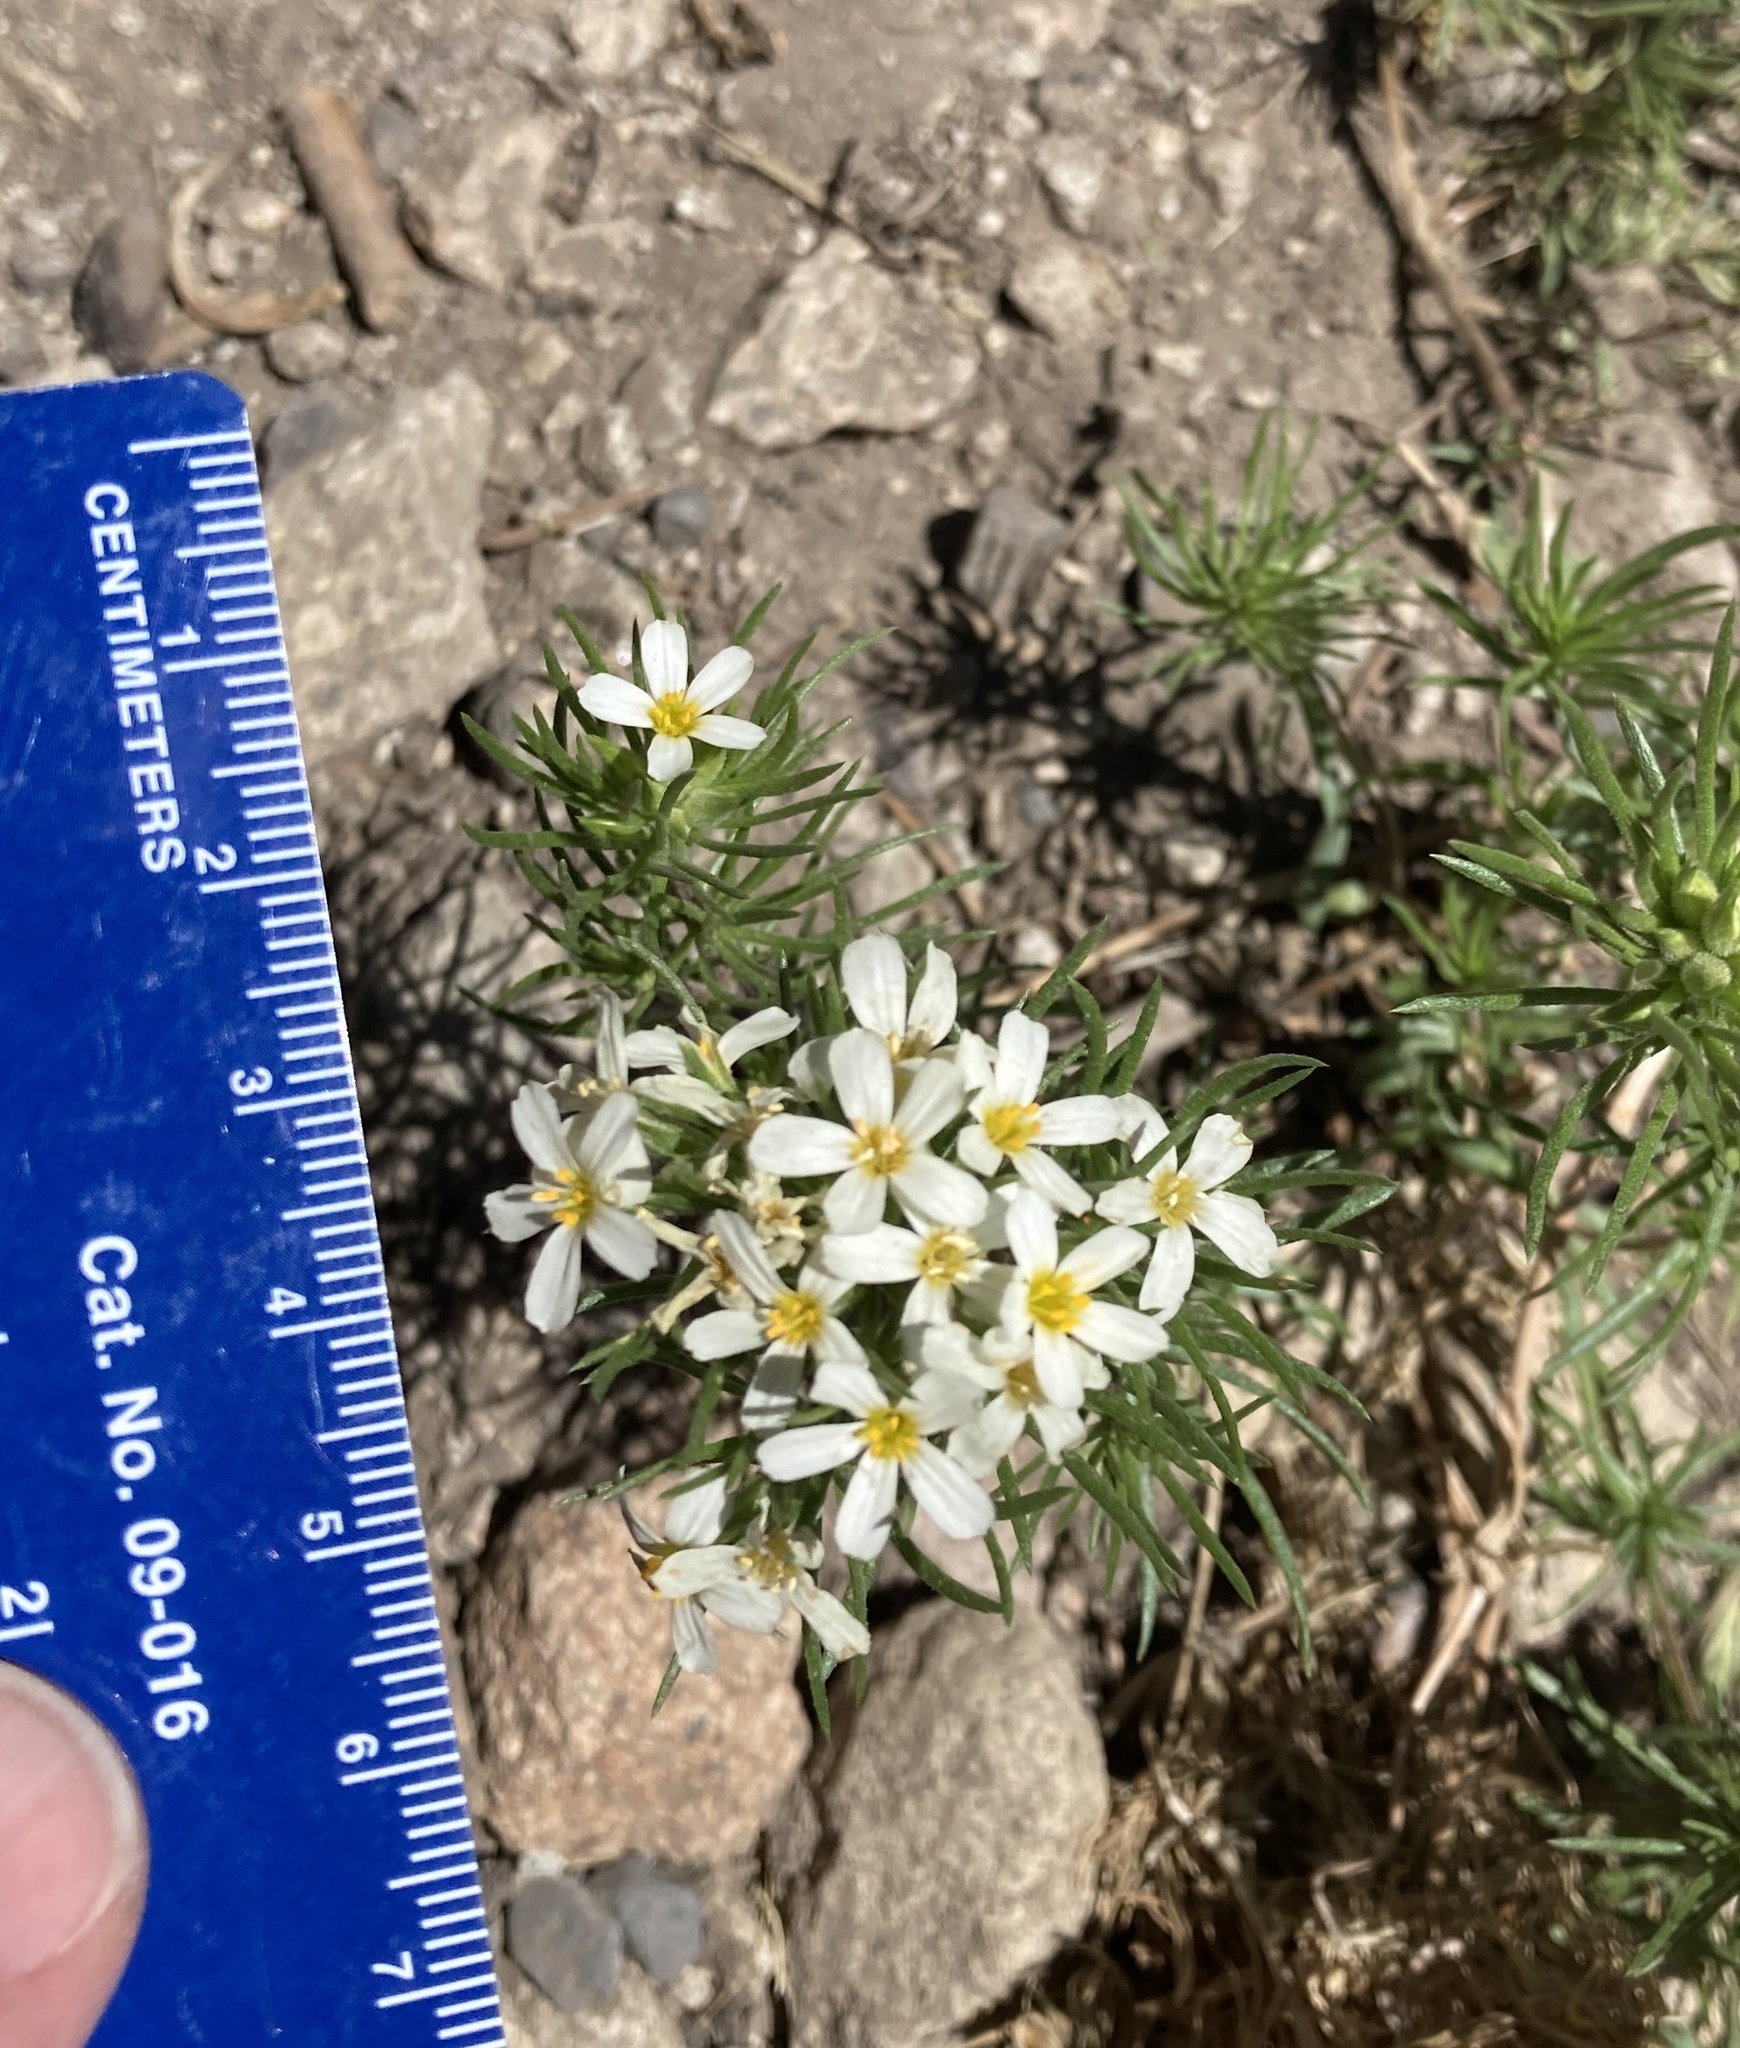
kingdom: Plantae
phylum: Tracheophyta
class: Magnoliopsida
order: Ericales
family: Polemoniaceae
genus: Leptosiphon
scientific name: Leptosiphon nuttallii
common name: Nuttall's linanthus
